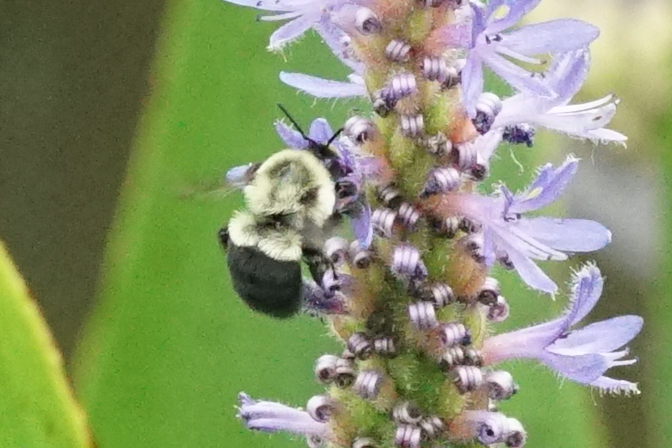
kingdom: Animalia
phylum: Arthropoda
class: Insecta
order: Hymenoptera
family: Apidae
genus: Bombus
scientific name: Bombus impatiens
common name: Common eastern bumble bee
